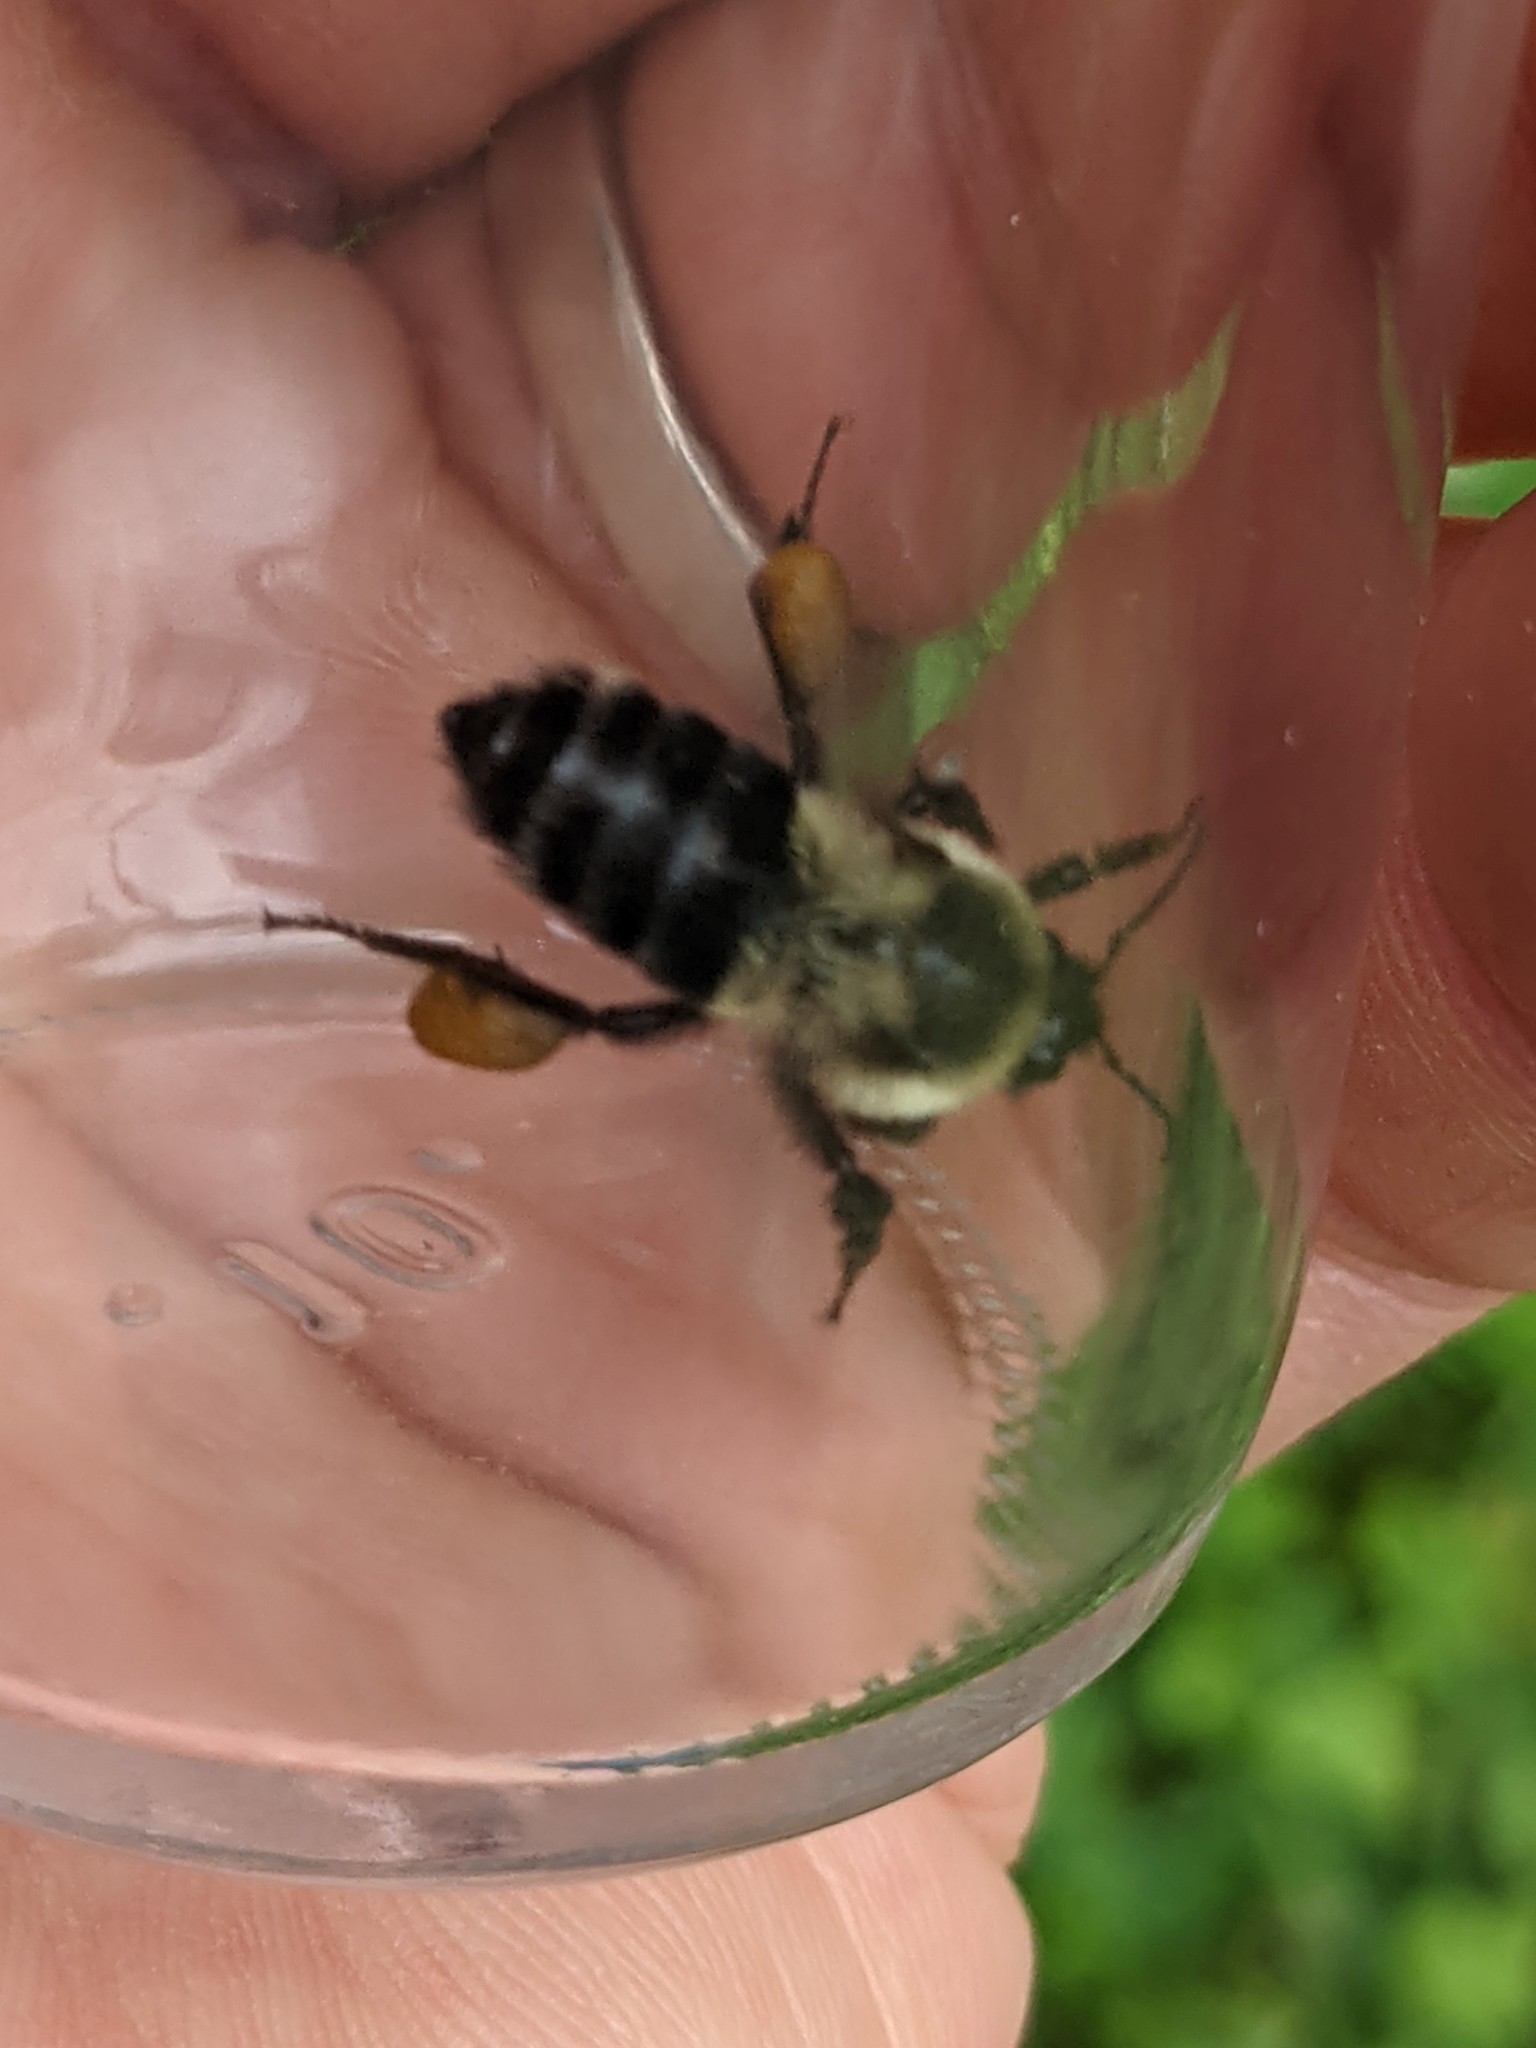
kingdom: Animalia
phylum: Arthropoda
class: Insecta
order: Hymenoptera
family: Apidae
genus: Bombus
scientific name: Bombus impatiens
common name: Common eastern bumble bee
